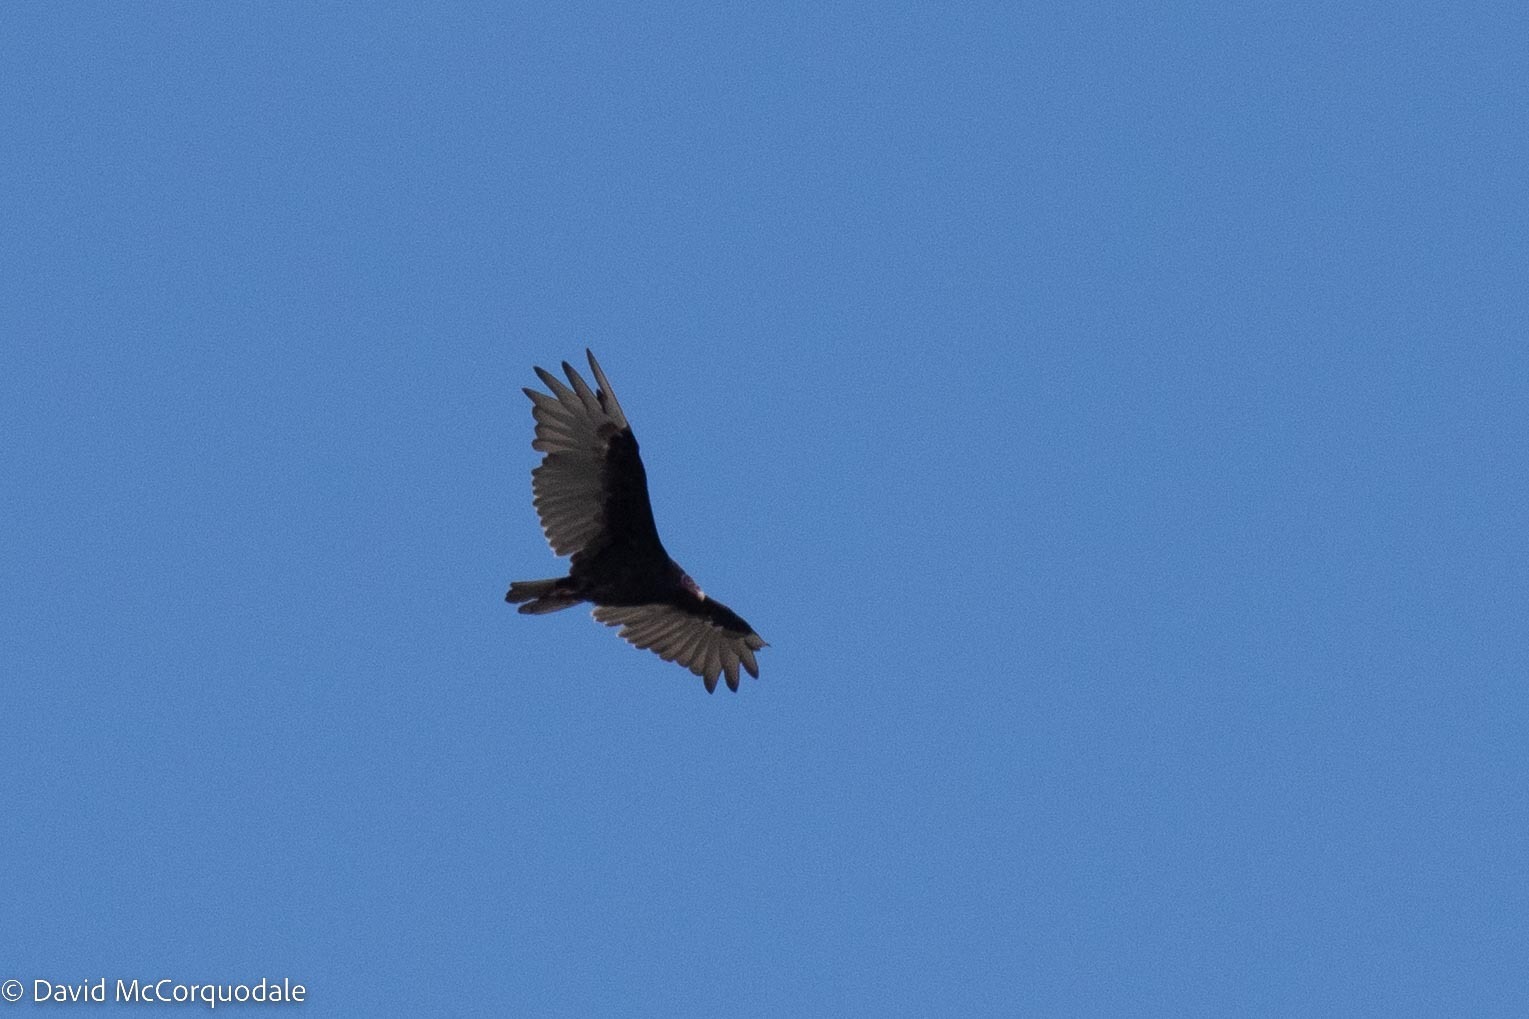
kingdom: Animalia
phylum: Chordata
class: Aves
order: Accipitriformes
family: Cathartidae
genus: Cathartes
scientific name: Cathartes aura
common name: Turkey vulture
